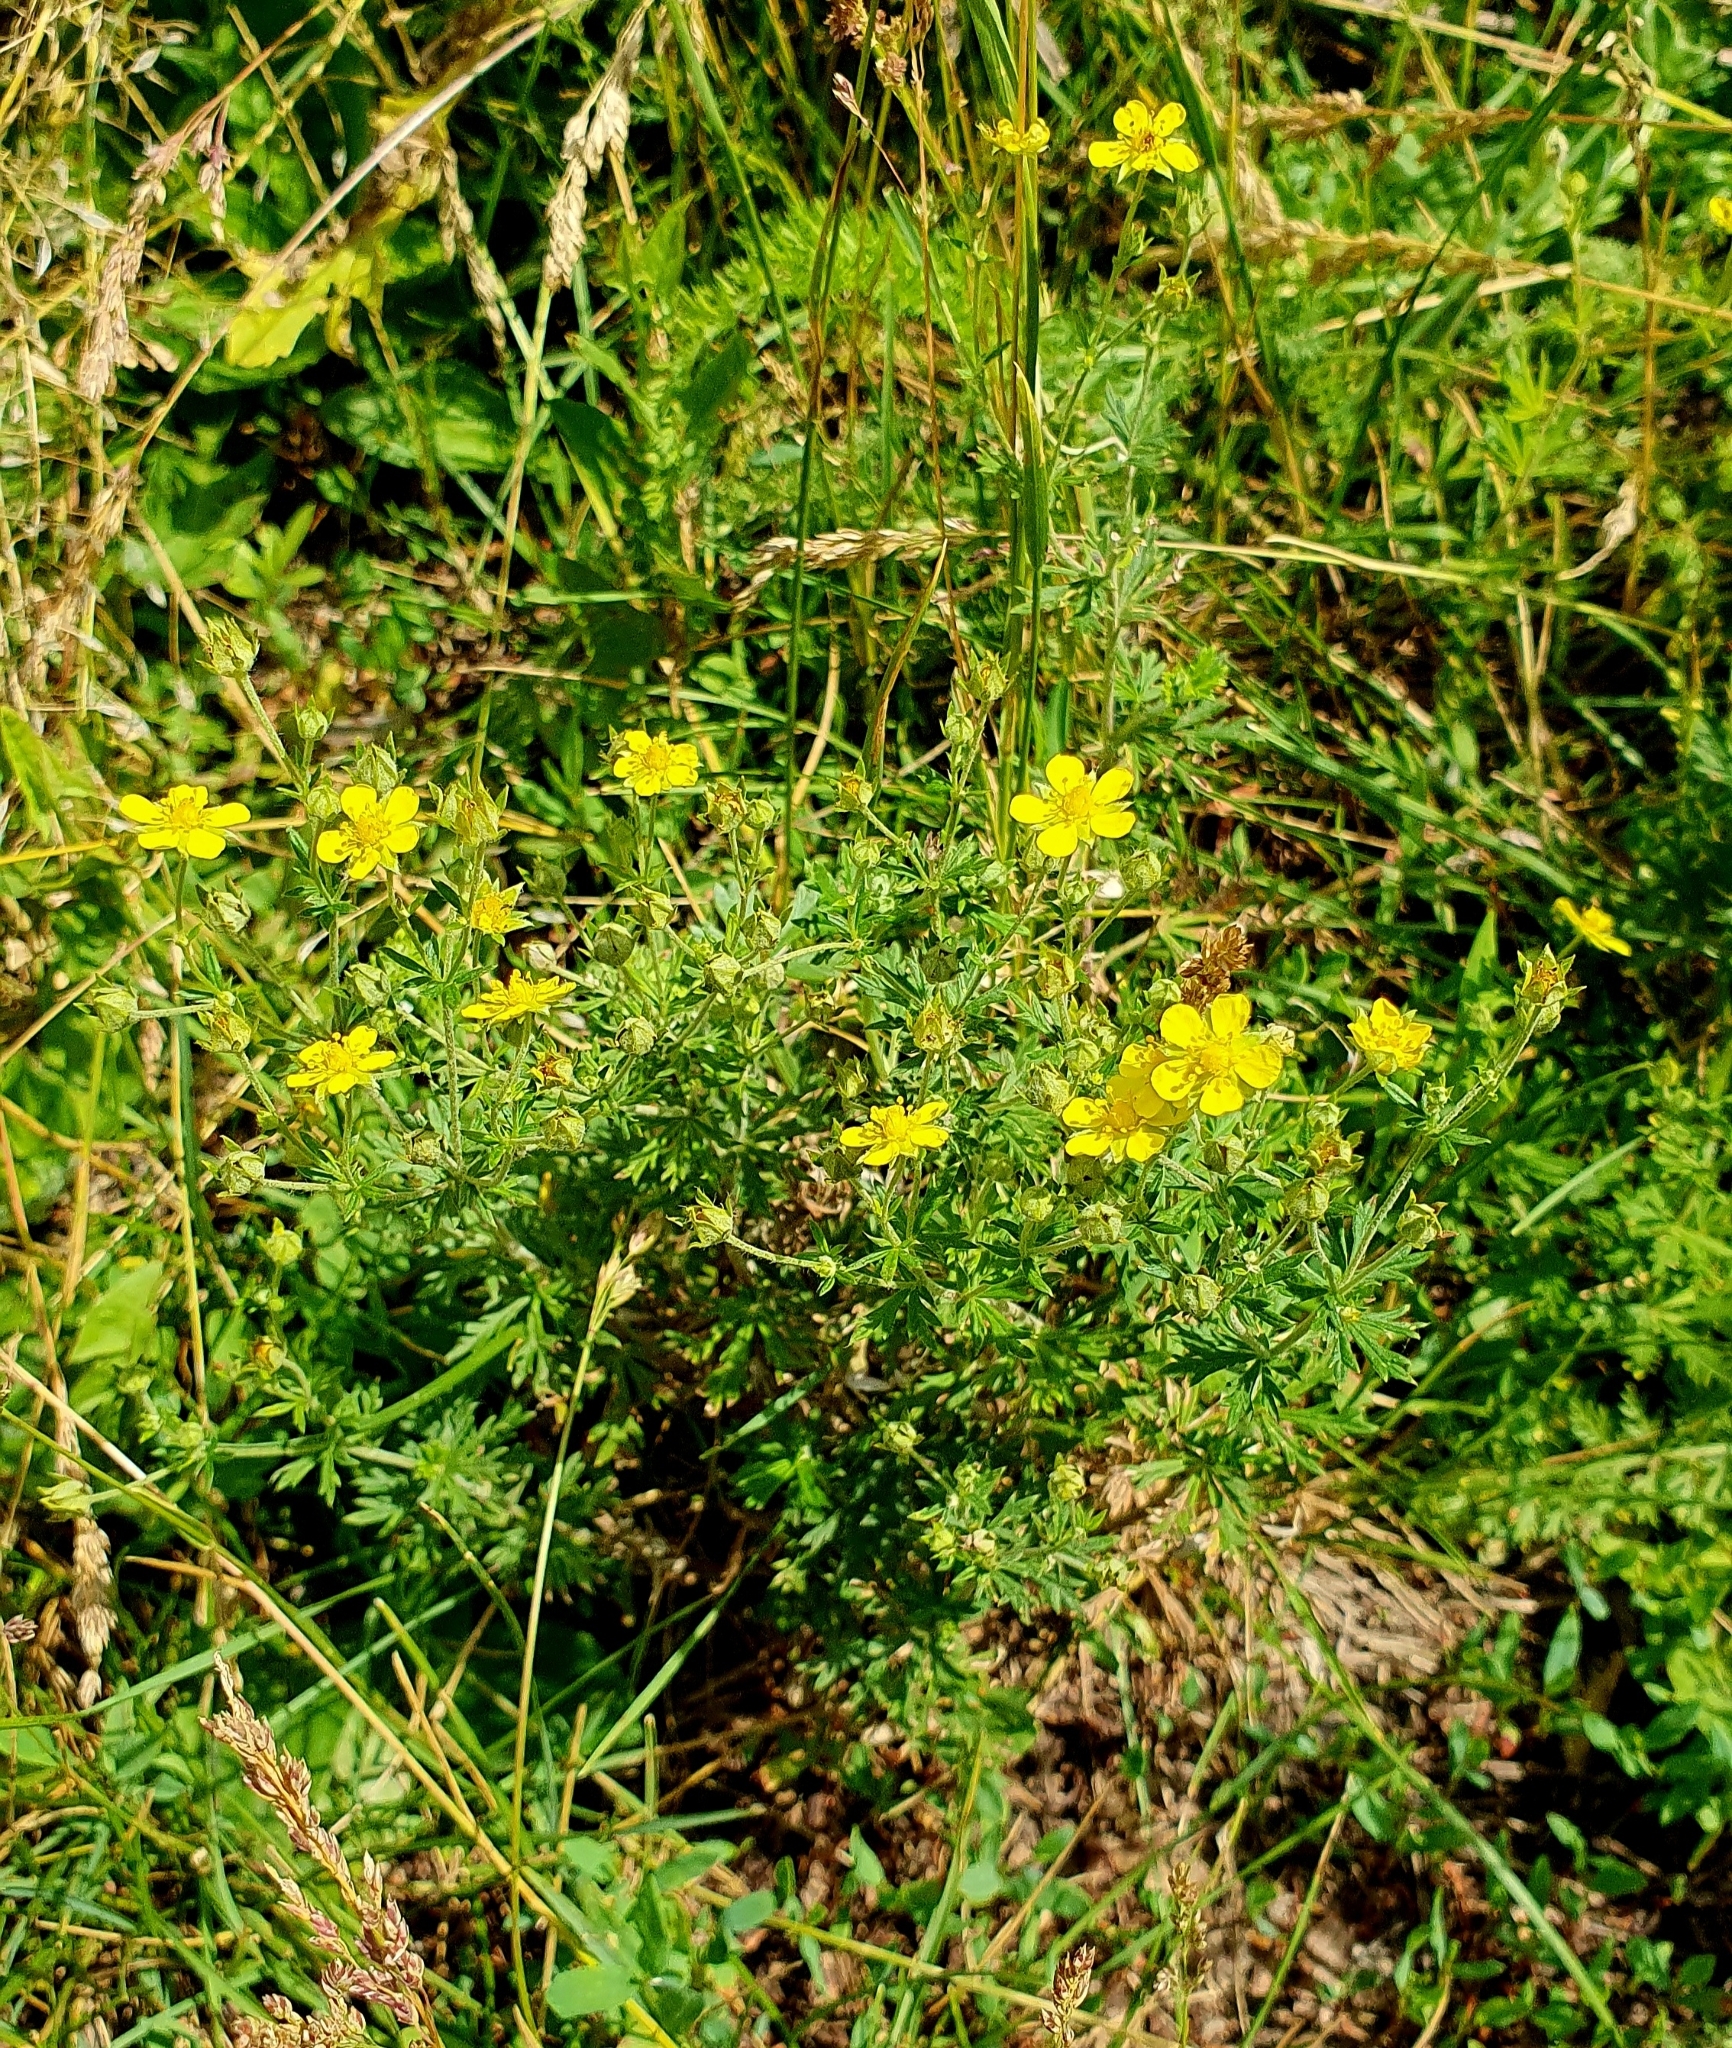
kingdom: Plantae
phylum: Tracheophyta
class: Magnoliopsida
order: Rosales
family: Rosaceae
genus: Potentilla
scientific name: Potentilla argentea
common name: Hoary cinquefoil
